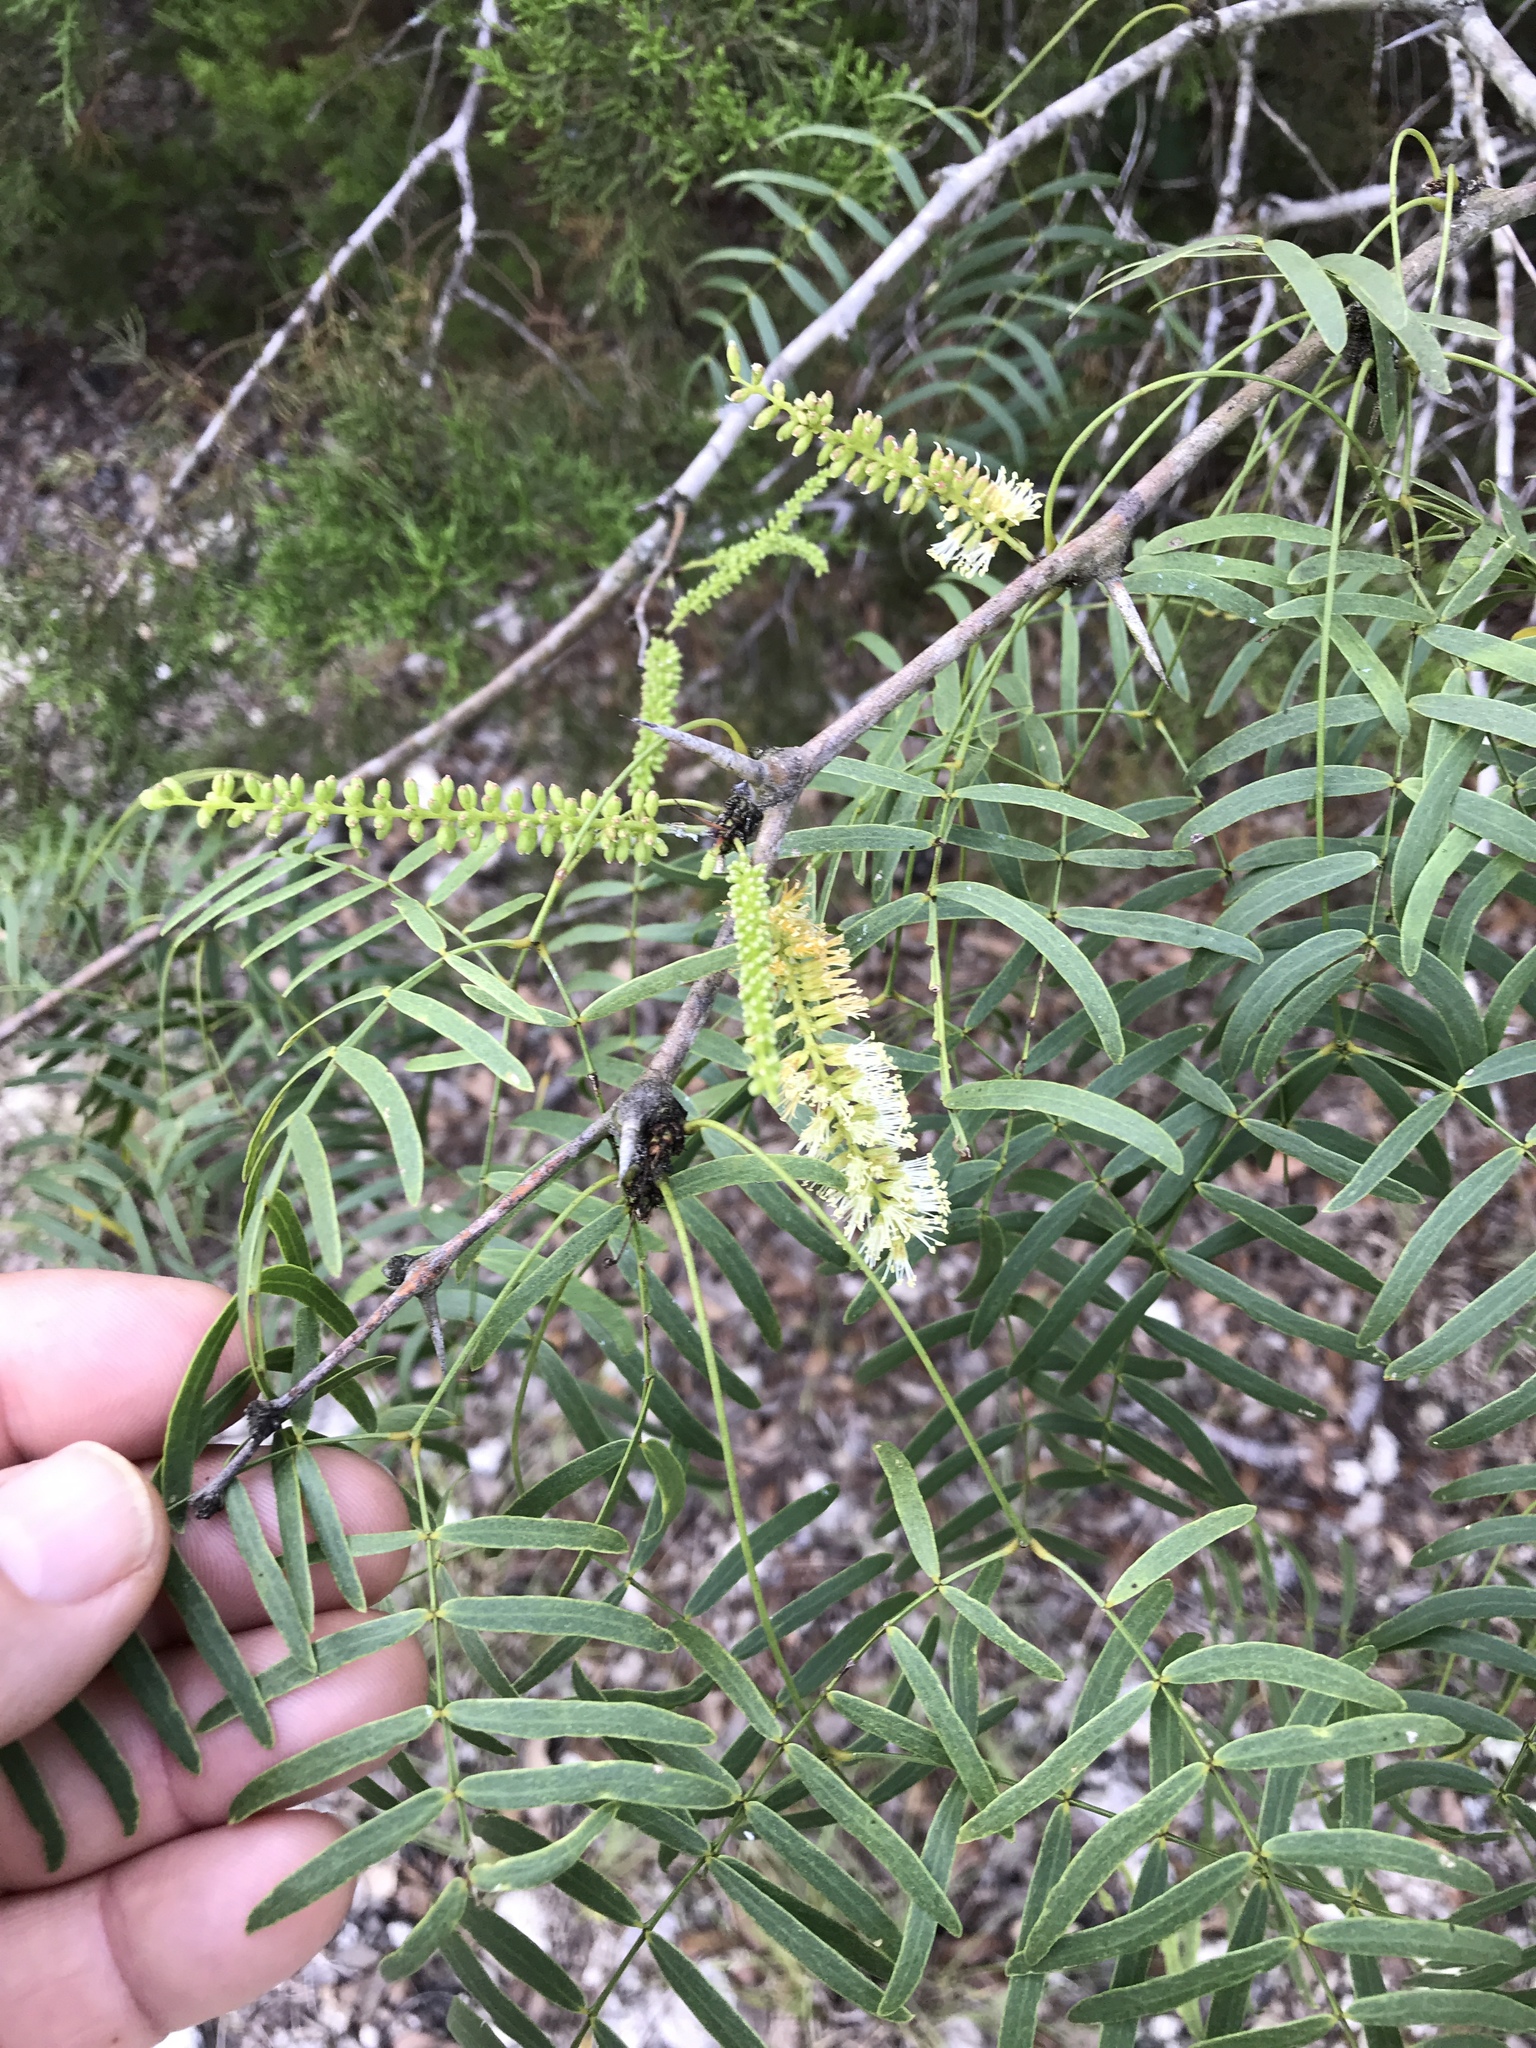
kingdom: Plantae
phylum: Tracheophyta
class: Magnoliopsida
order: Fabales
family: Fabaceae
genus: Prosopis
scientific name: Prosopis glandulosa
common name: Honey mesquite
